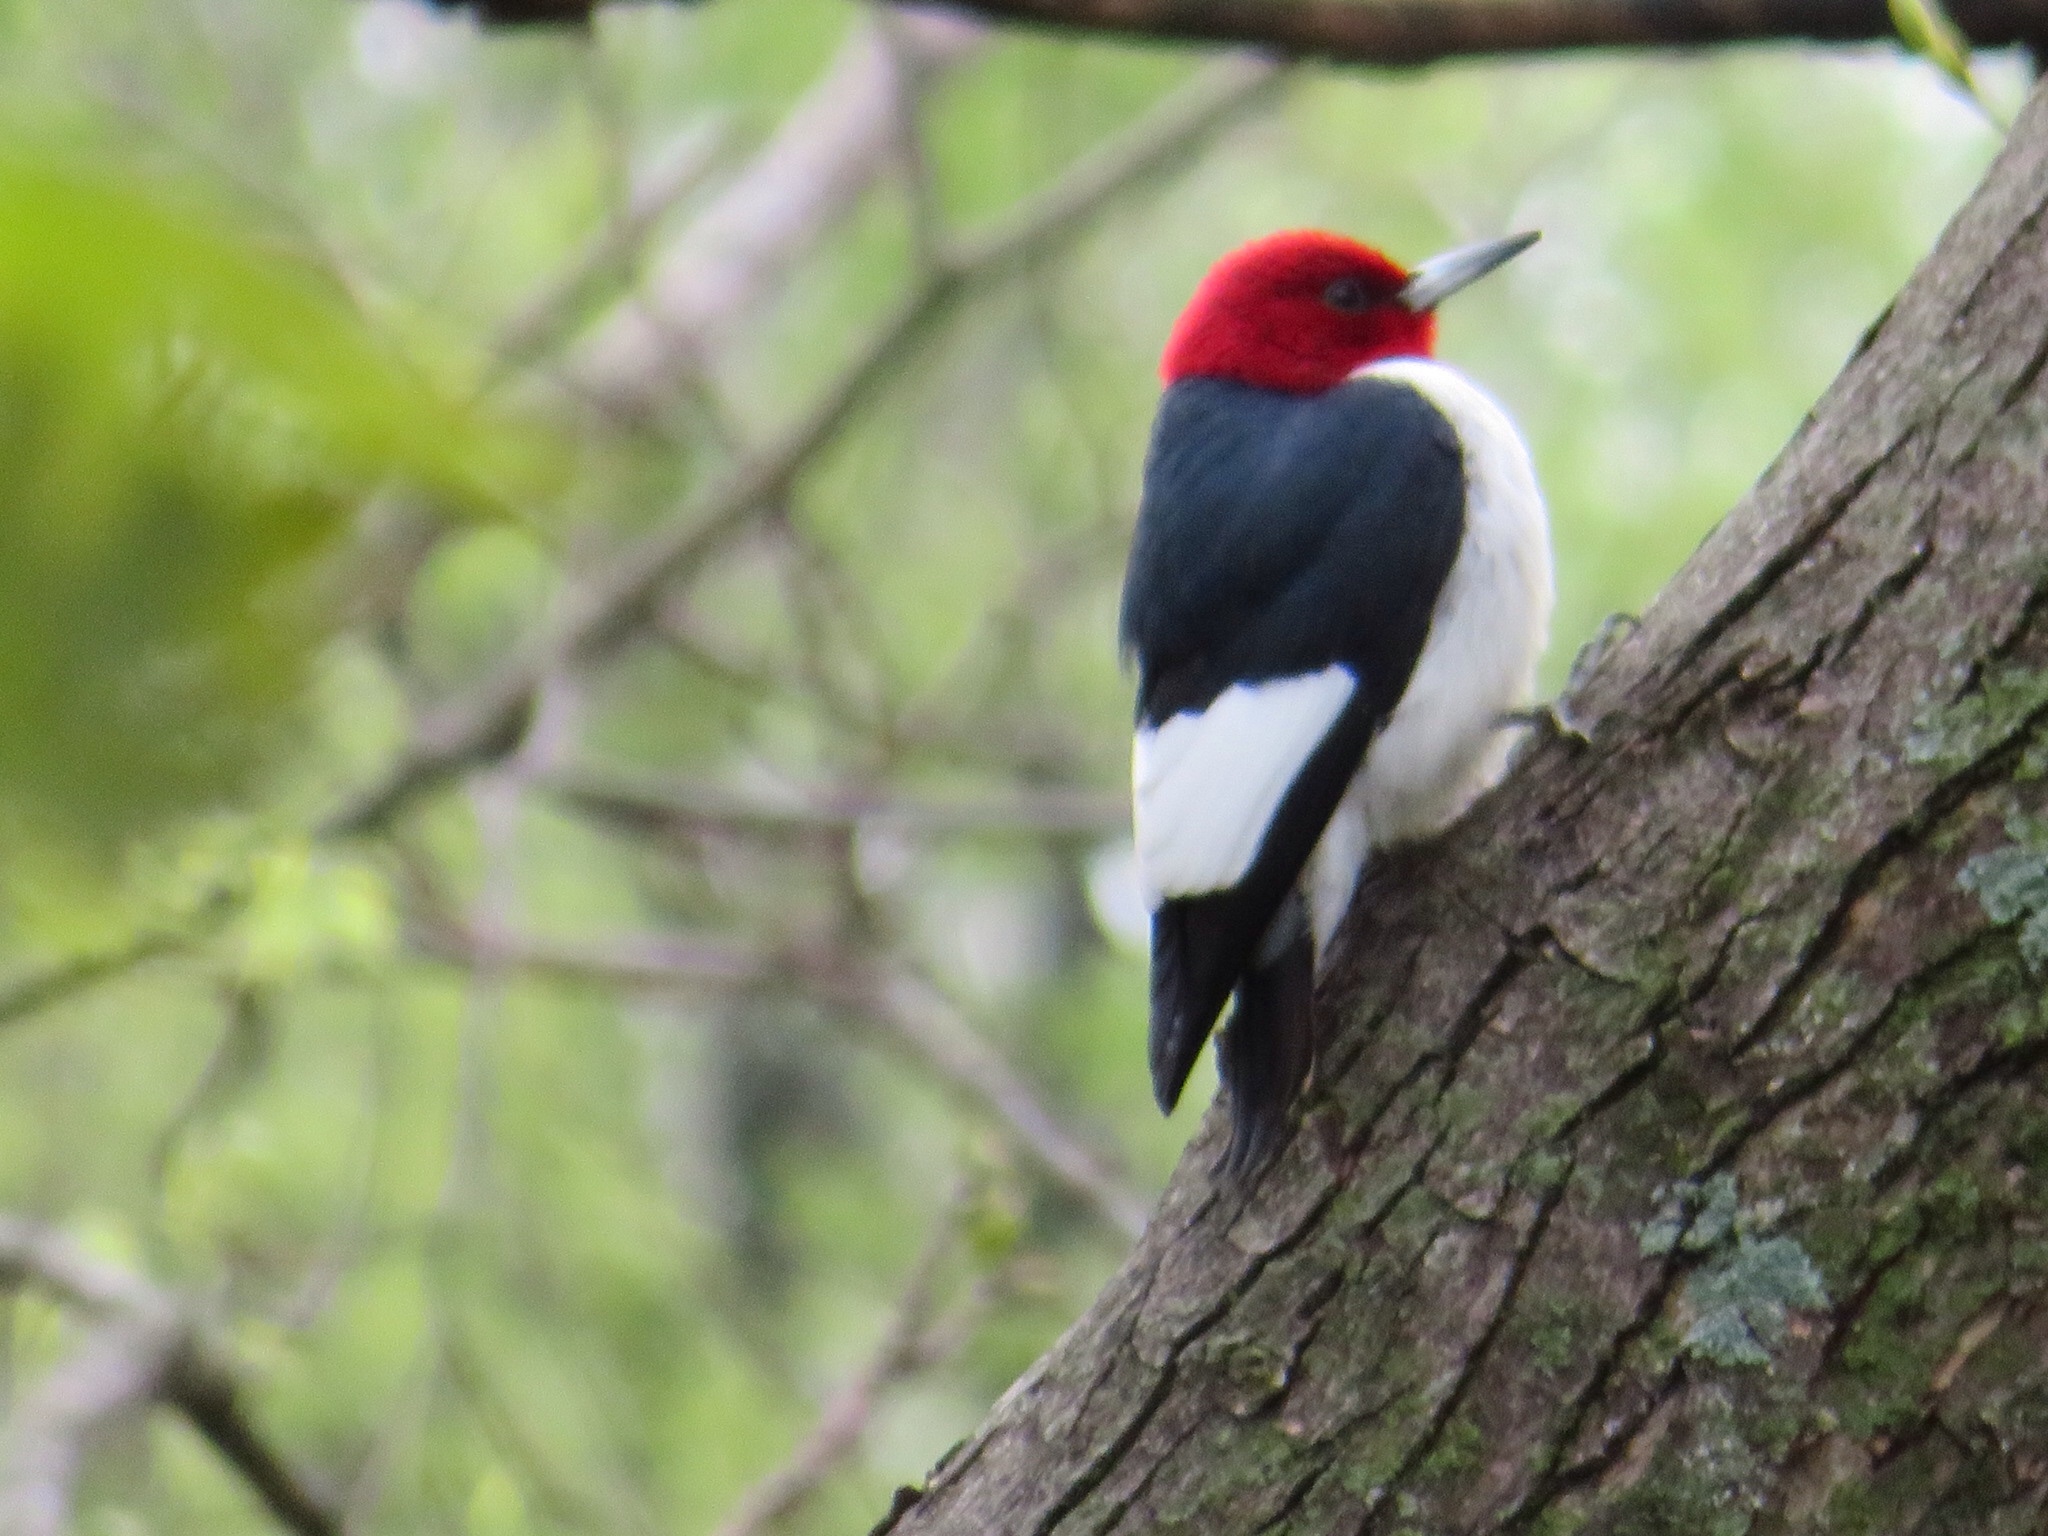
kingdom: Animalia
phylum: Chordata
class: Aves
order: Piciformes
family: Picidae
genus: Melanerpes
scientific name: Melanerpes erythrocephalus
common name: Red-headed woodpecker
